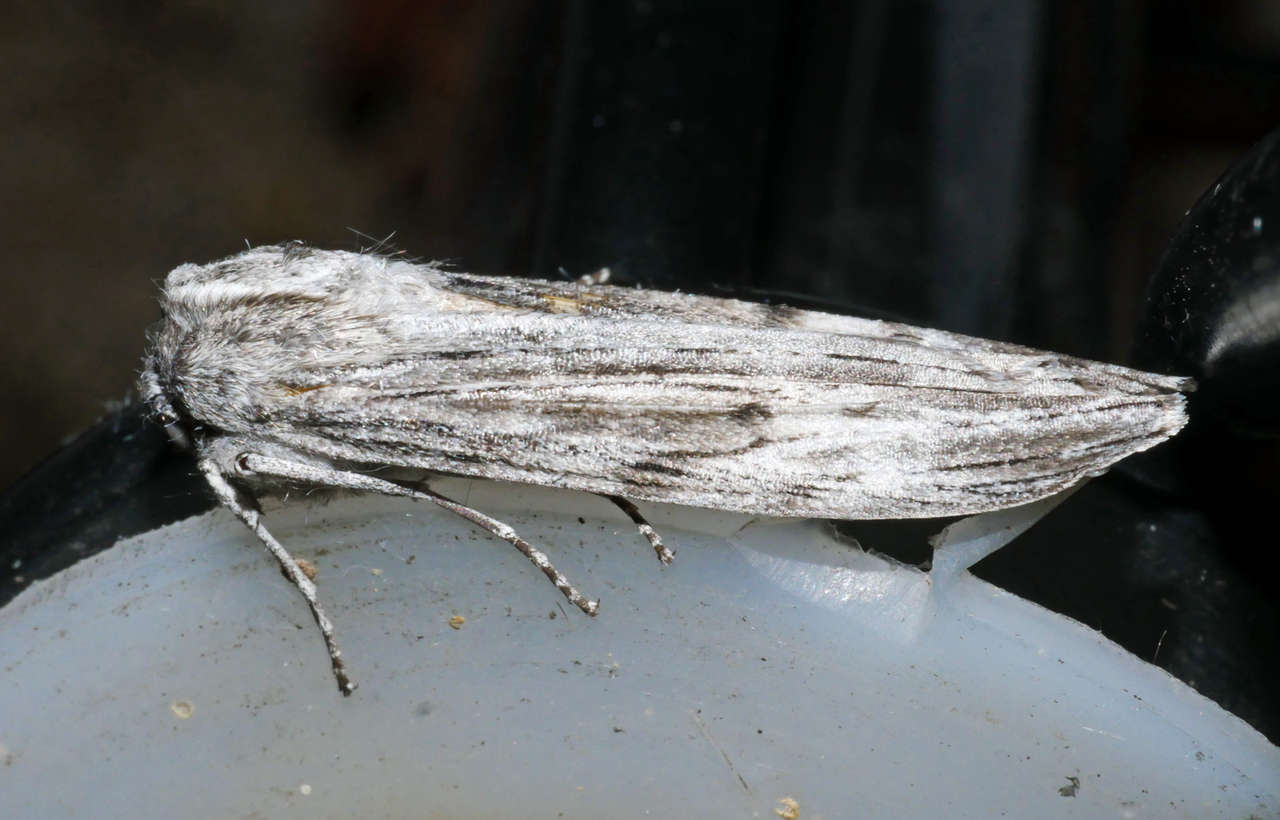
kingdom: Animalia
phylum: Arthropoda
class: Insecta
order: Lepidoptera
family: Geometridae
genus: Capusa
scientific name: Capusa senilis
